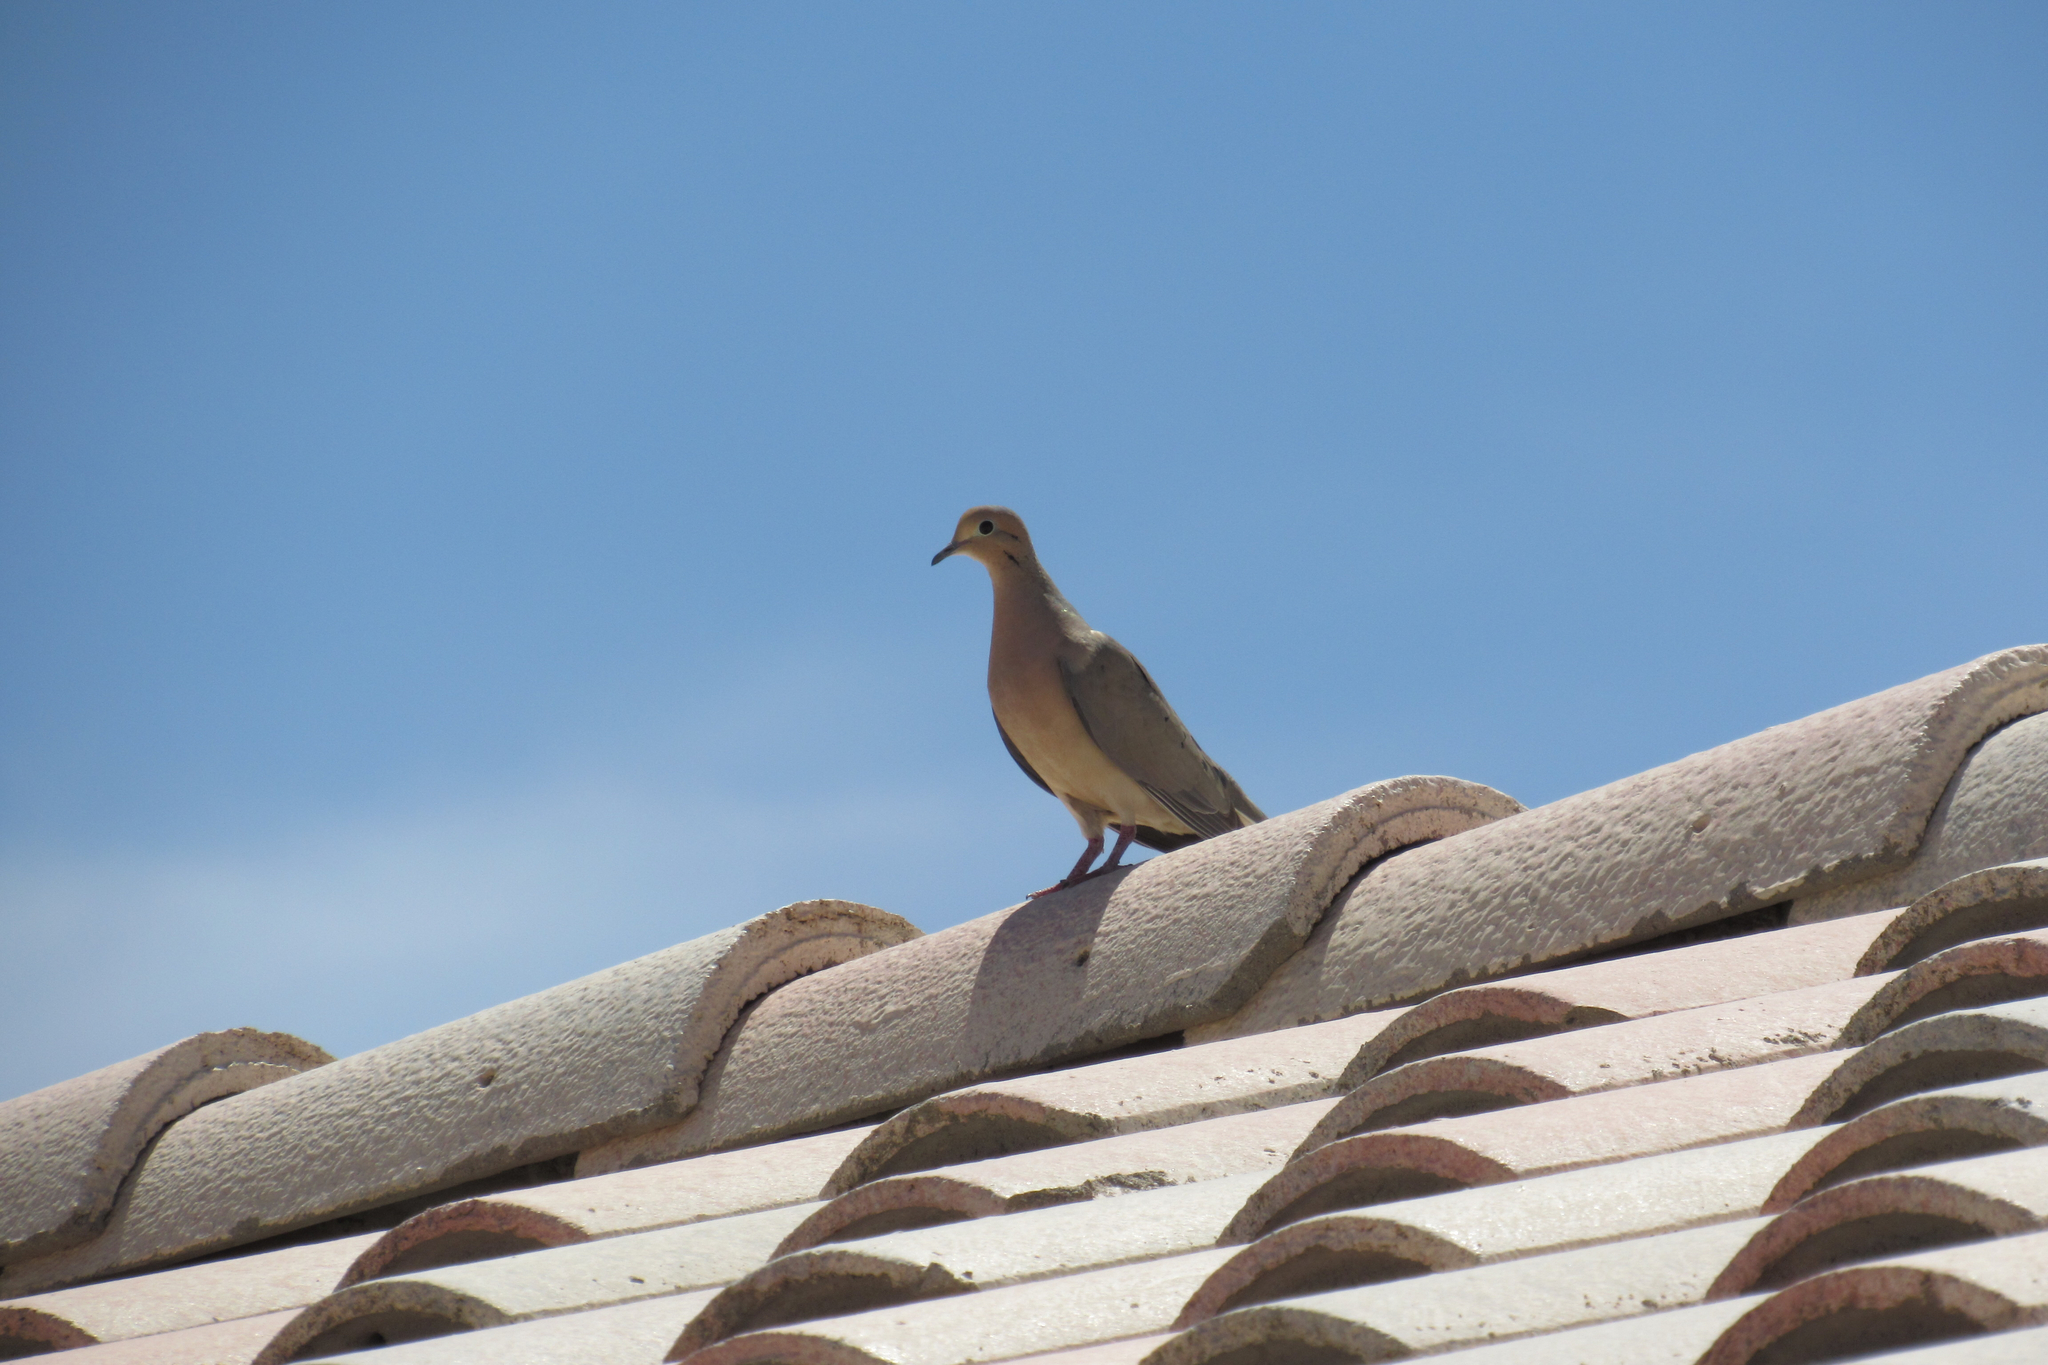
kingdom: Animalia
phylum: Chordata
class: Aves
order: Columbiformes
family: Columbidae
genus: Zenaida
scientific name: Zenaida macroura
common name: Mourning dove
